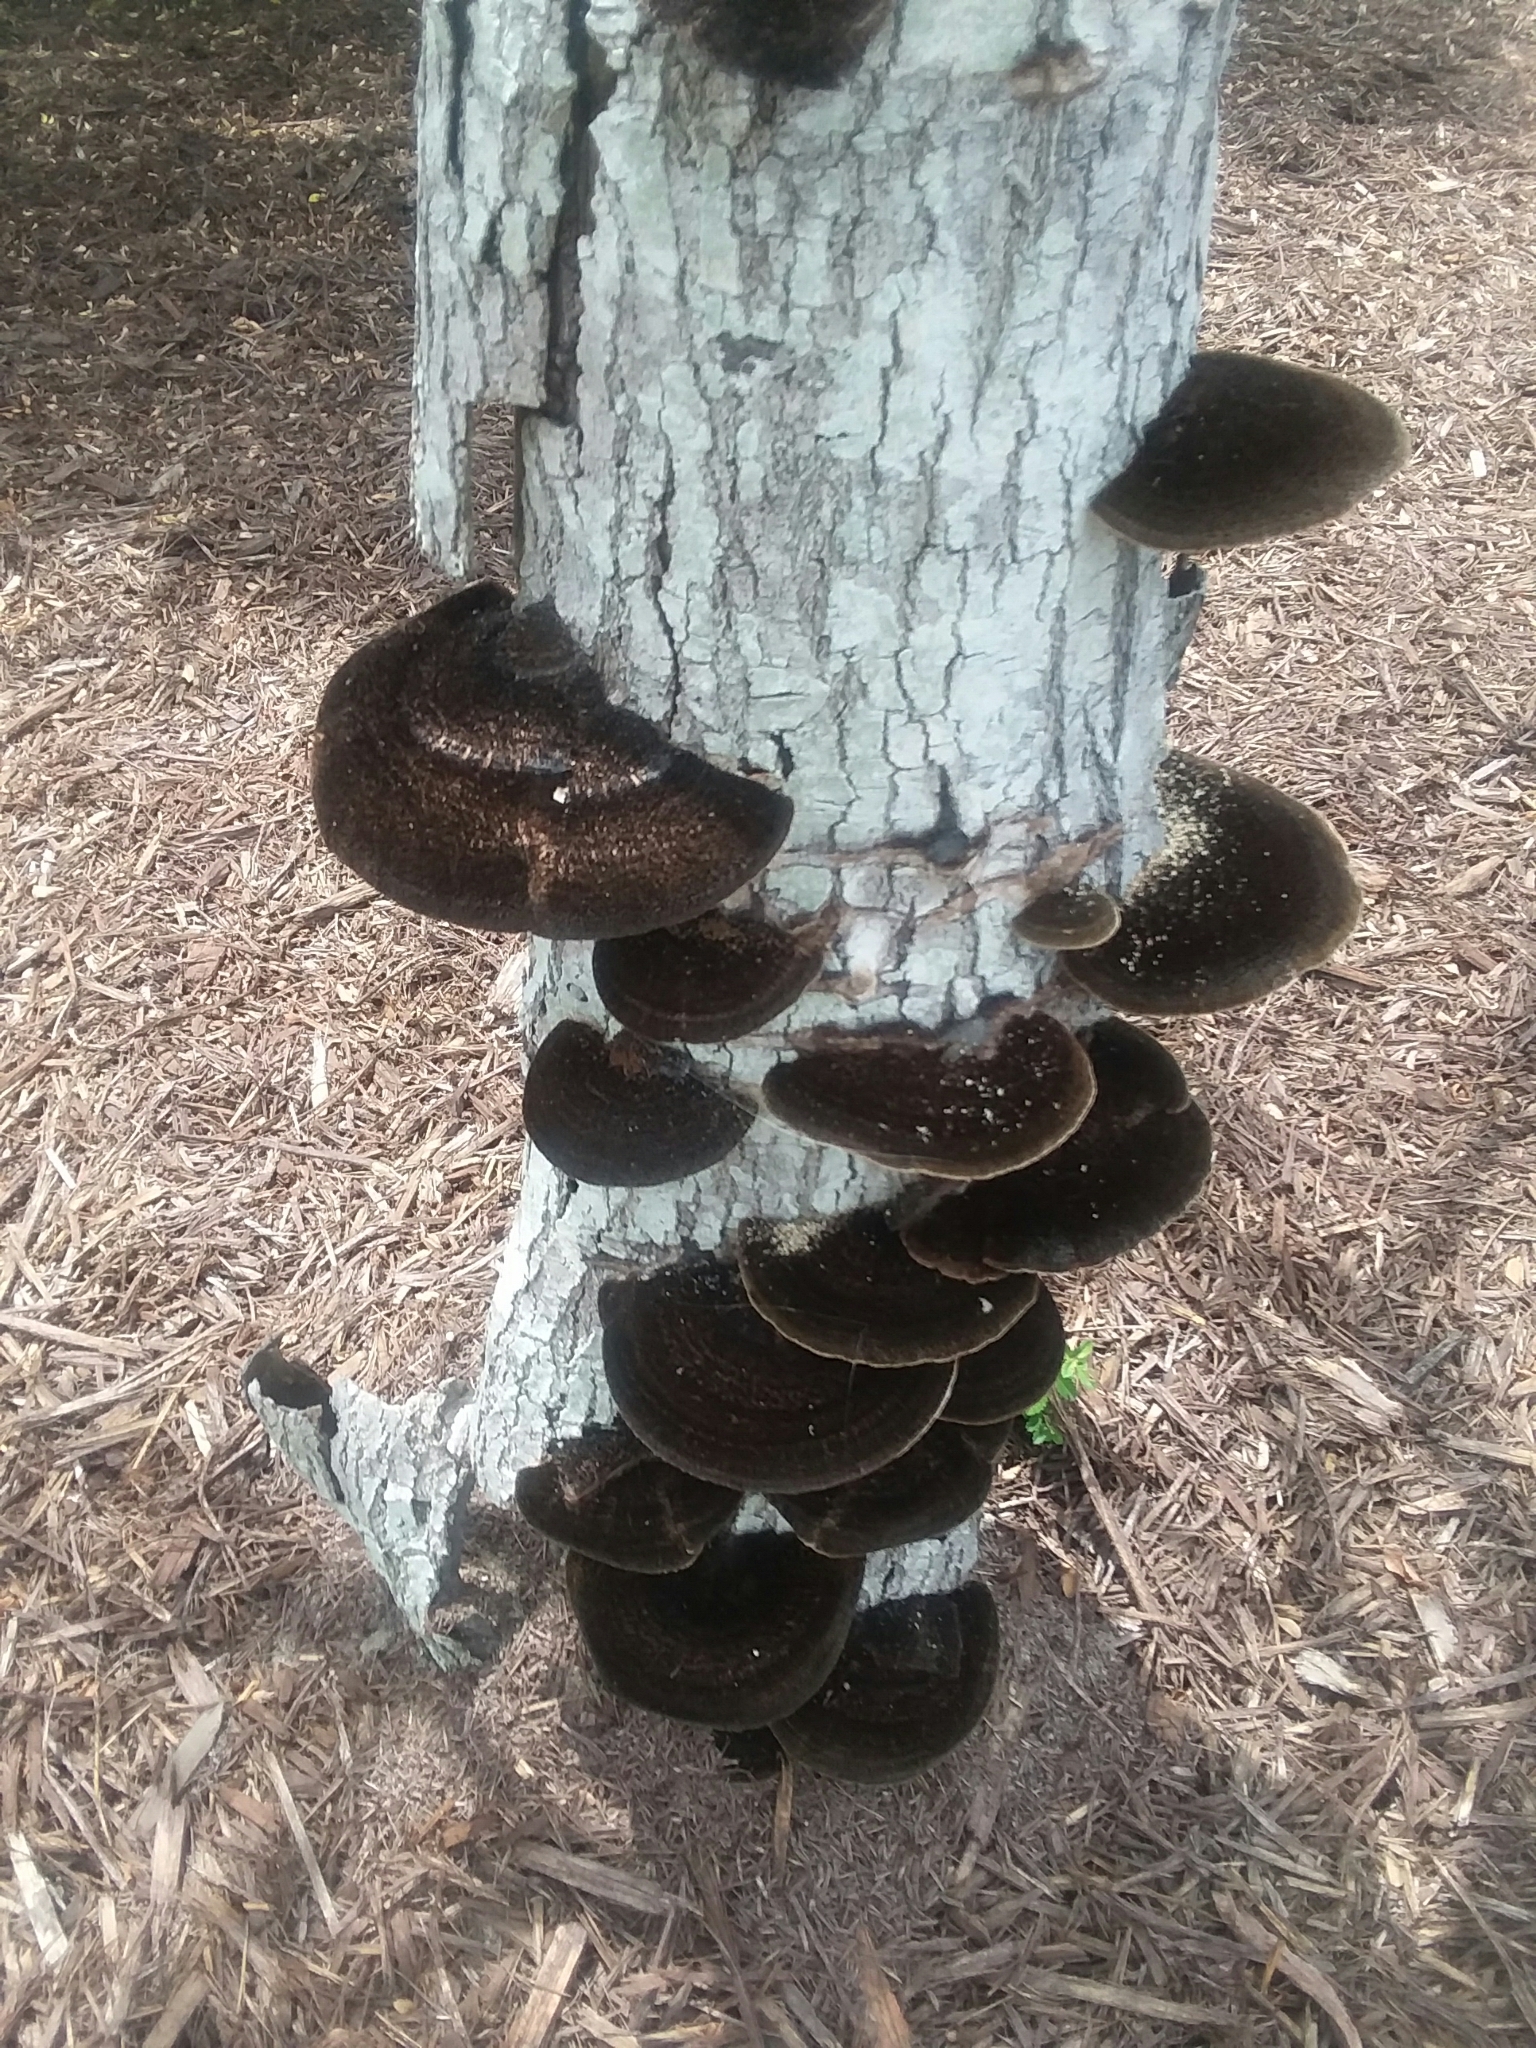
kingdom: Fungi
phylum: Basidiomycota
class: Agaricomycetes
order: Polyporales
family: Cerrenaceae
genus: Cerrena
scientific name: Cerrena hydnoides
